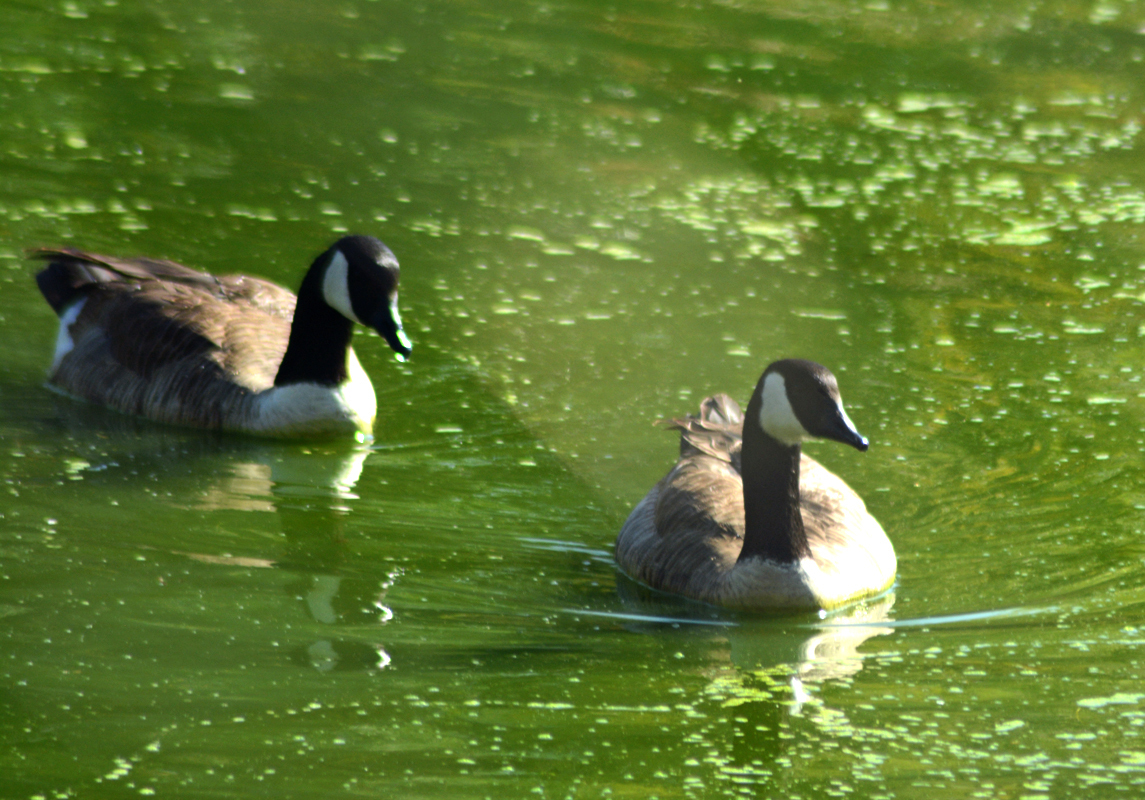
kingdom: Animalia
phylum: Chordata
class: Aves
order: Anseriformes
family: Anatidae
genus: Branta
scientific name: Branta canadensis
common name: Canada goose
